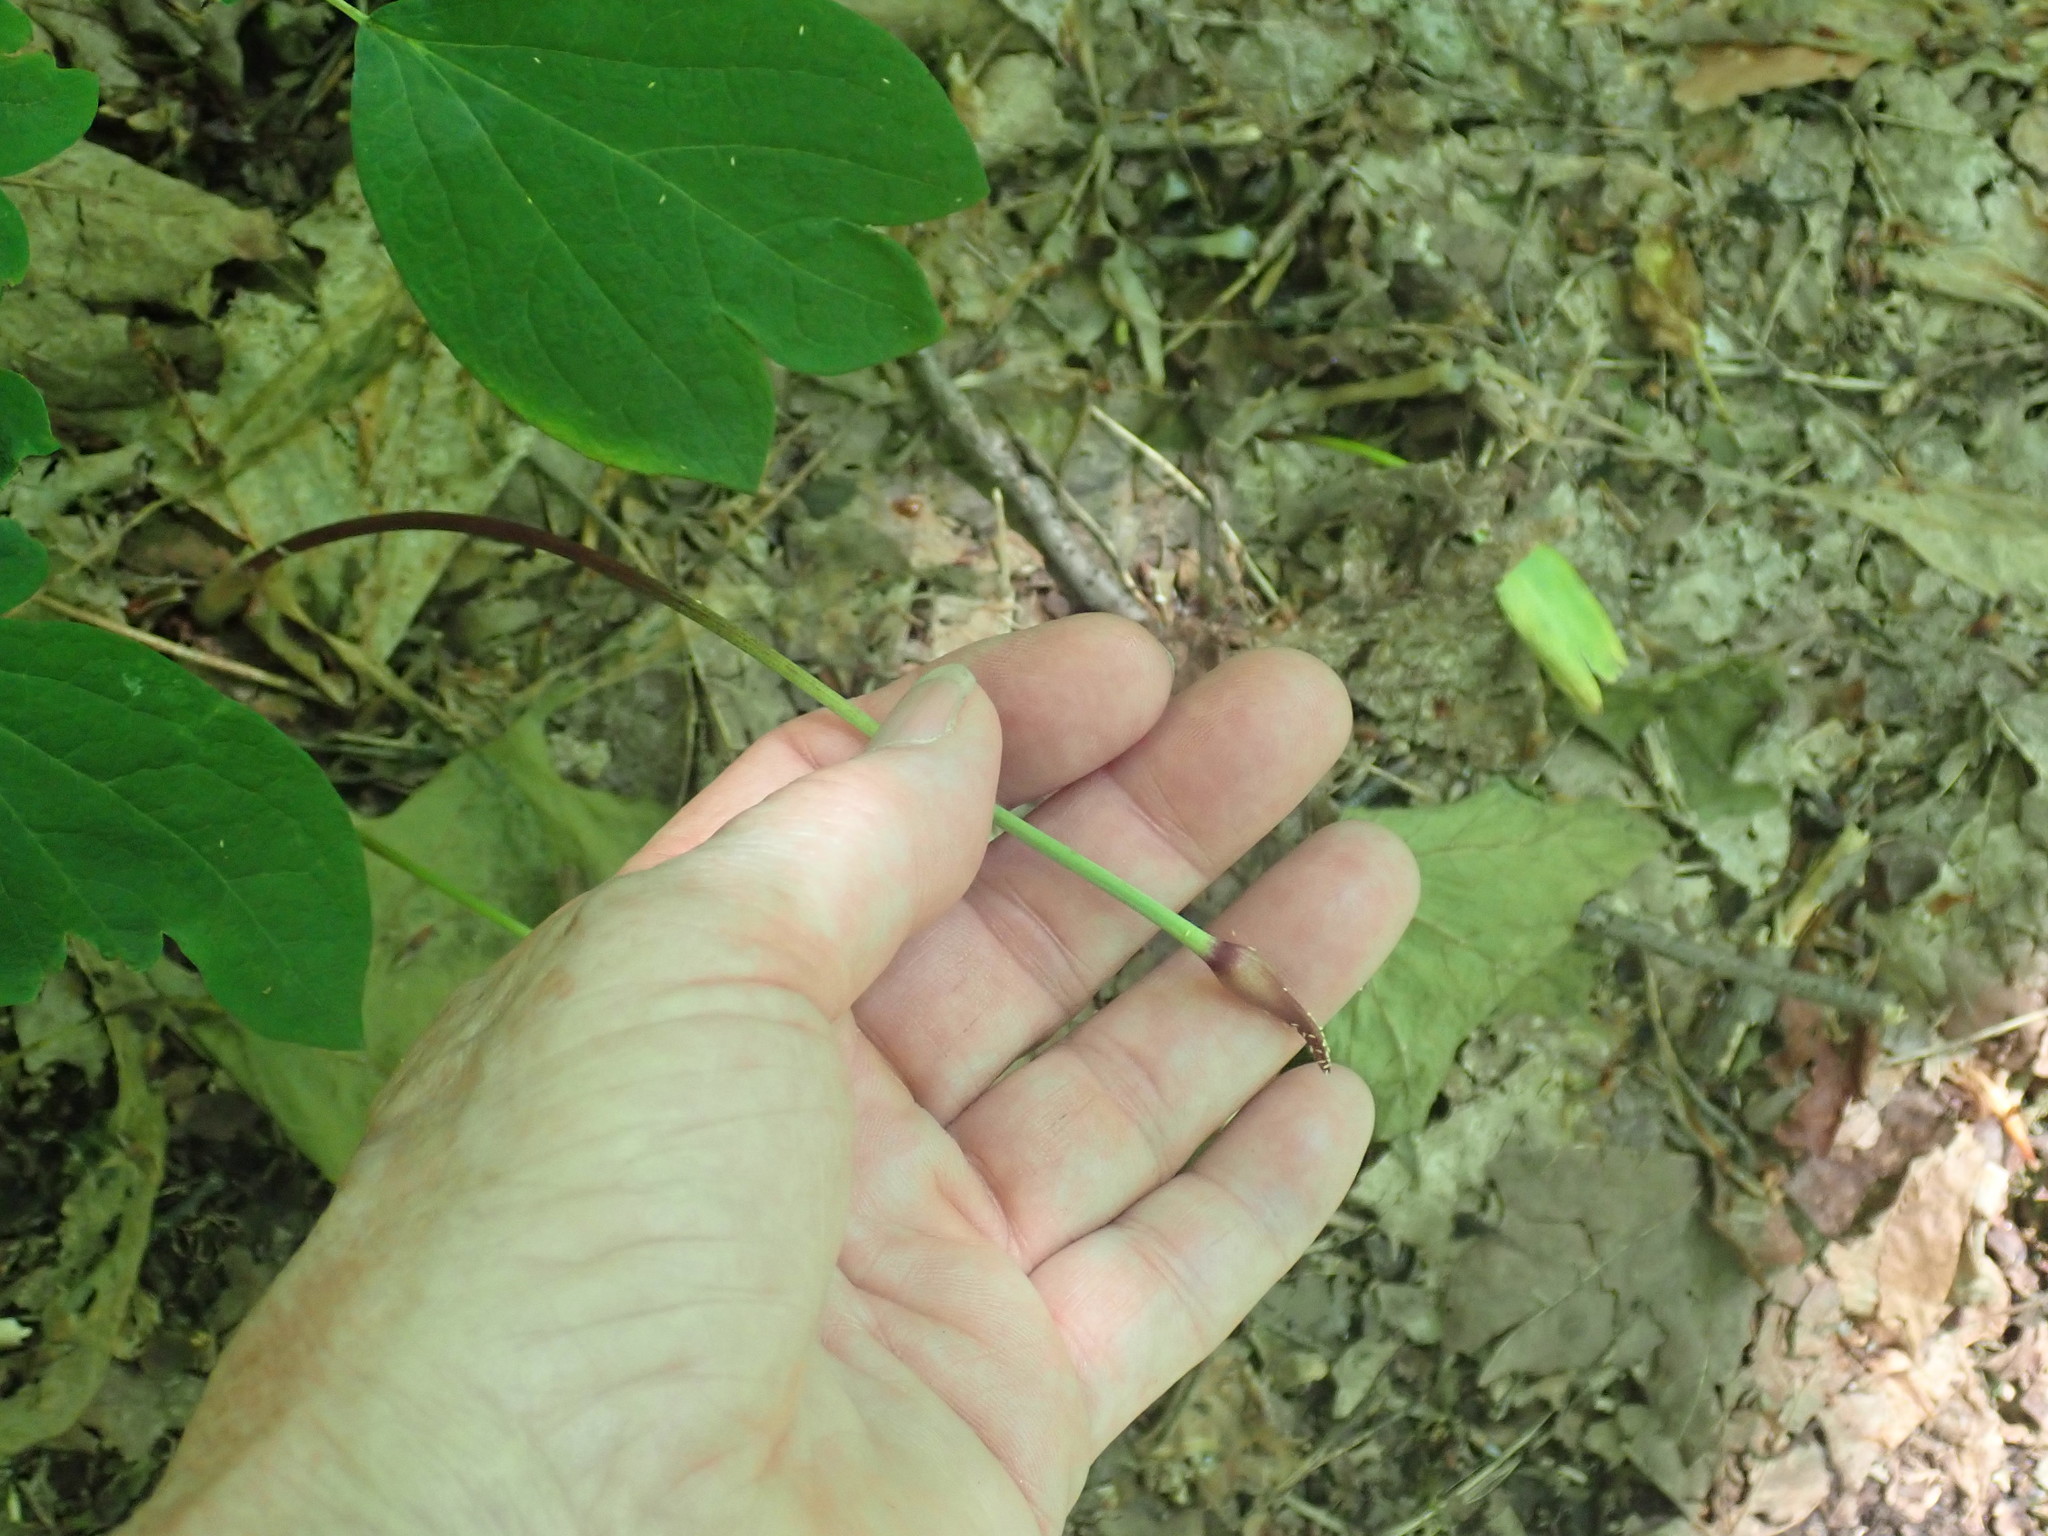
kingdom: Plantae
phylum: Tracheophyta
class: Liliopsida
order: Asparagales
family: Amaryllidaceae
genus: Allium
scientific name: Allium tricoccum
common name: Ramp
